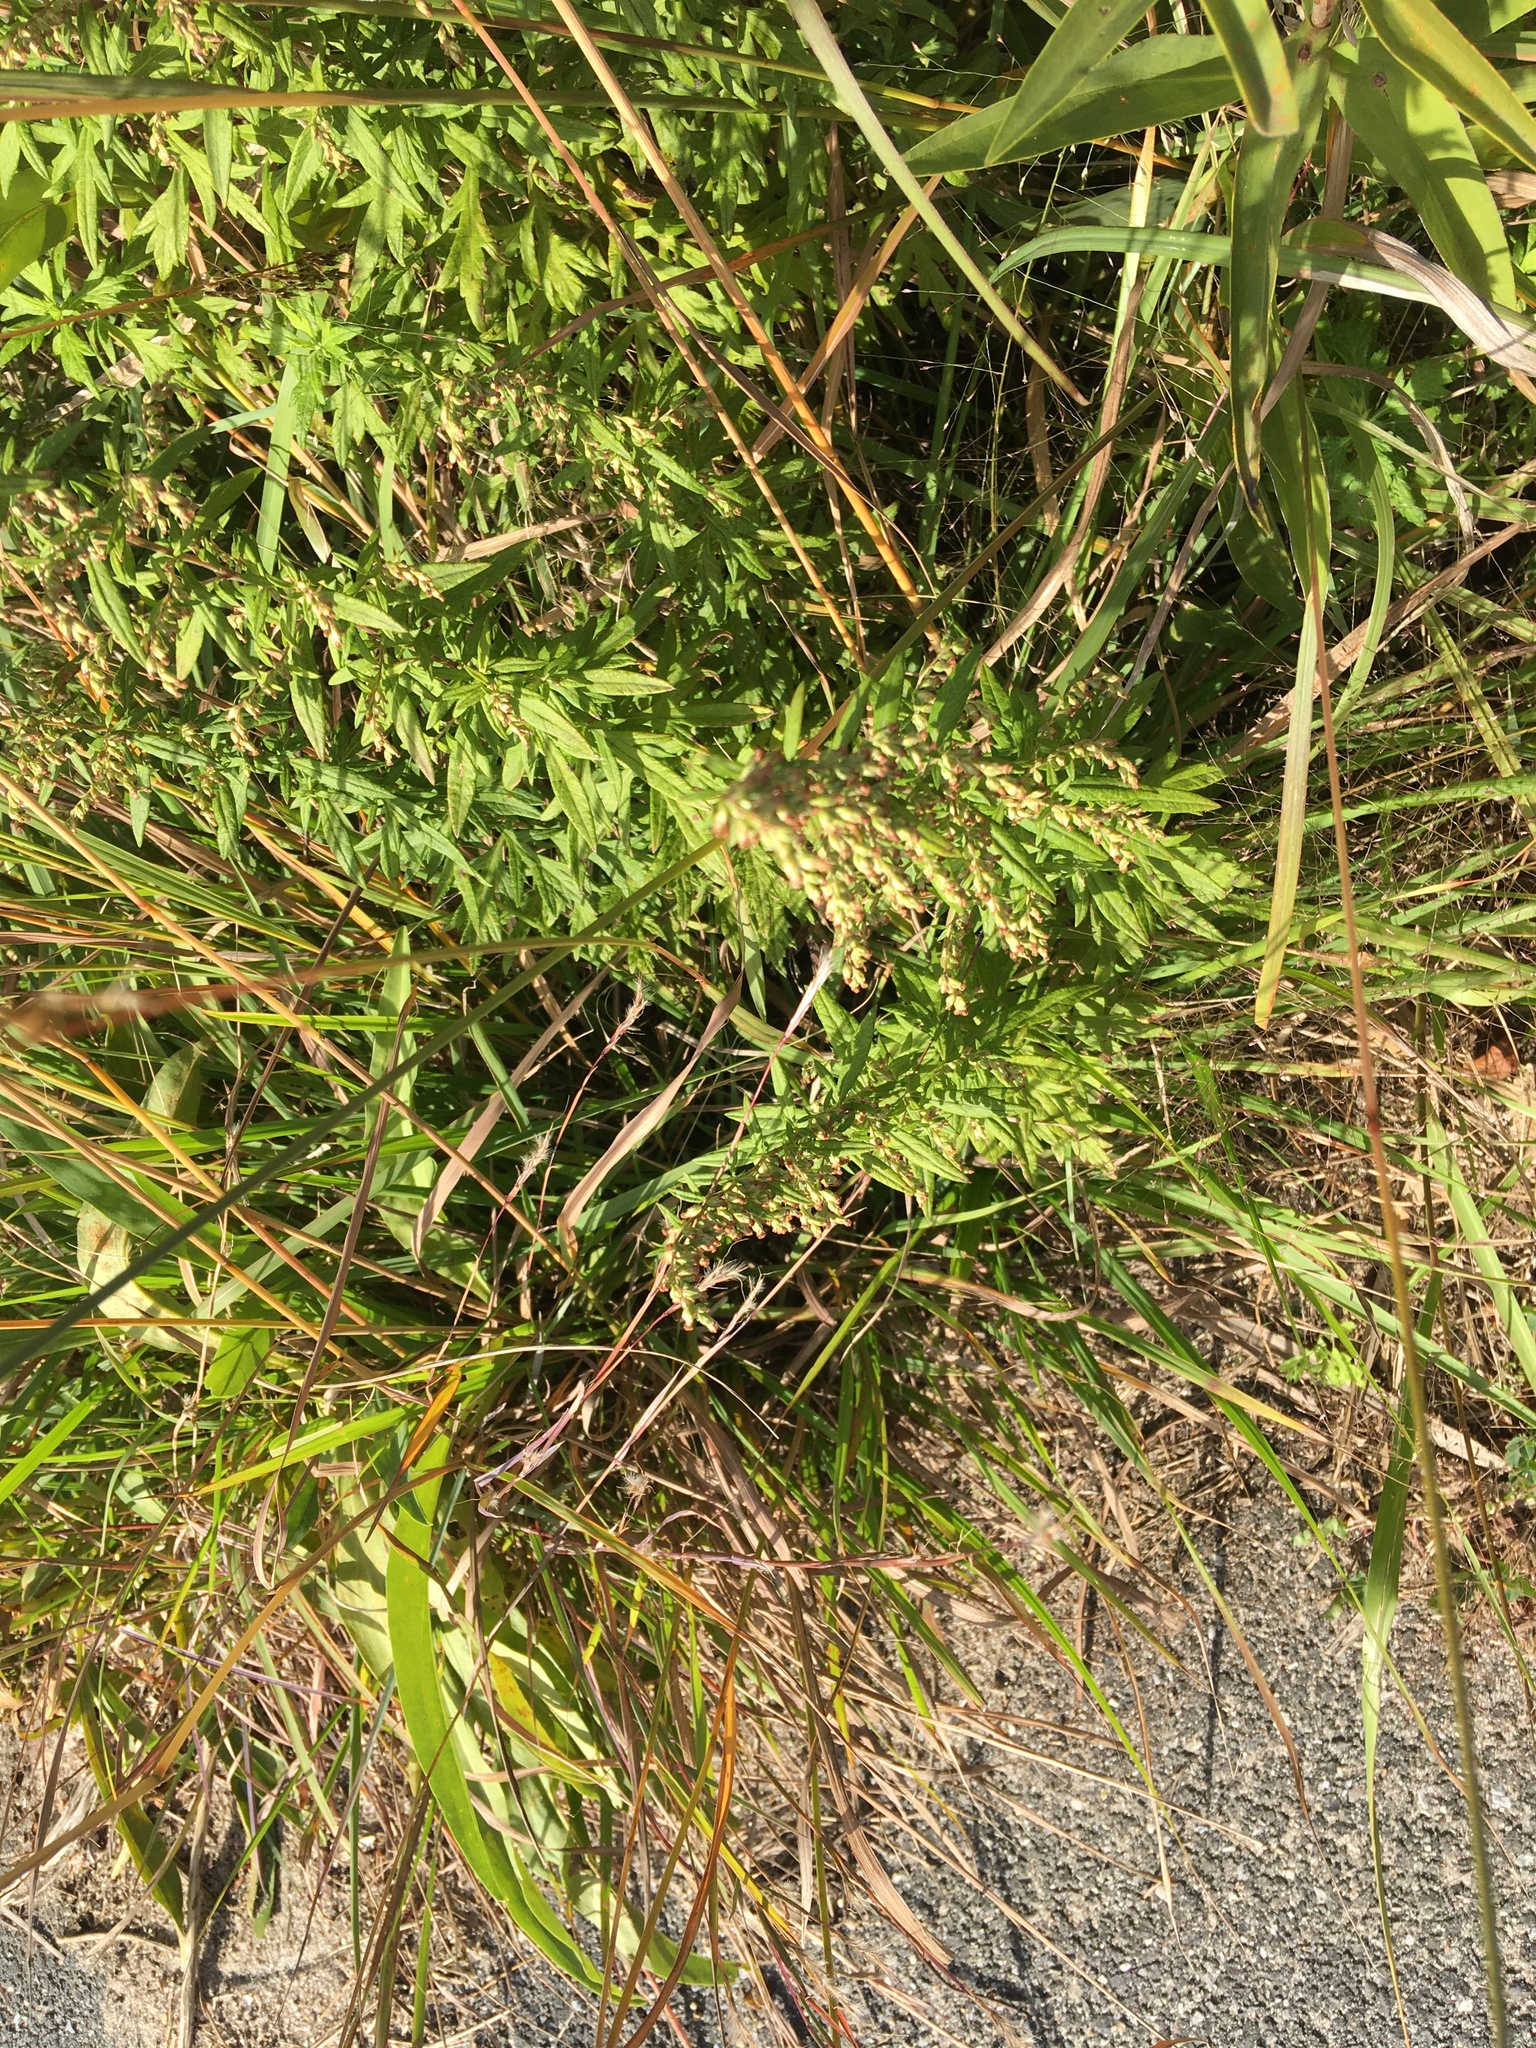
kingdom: Plantae
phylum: Tracheophyta
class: Magnoliopsida
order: Asterales
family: Asteraceae
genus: Artemisia
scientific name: Artemisia vulgaris
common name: Mugwort
